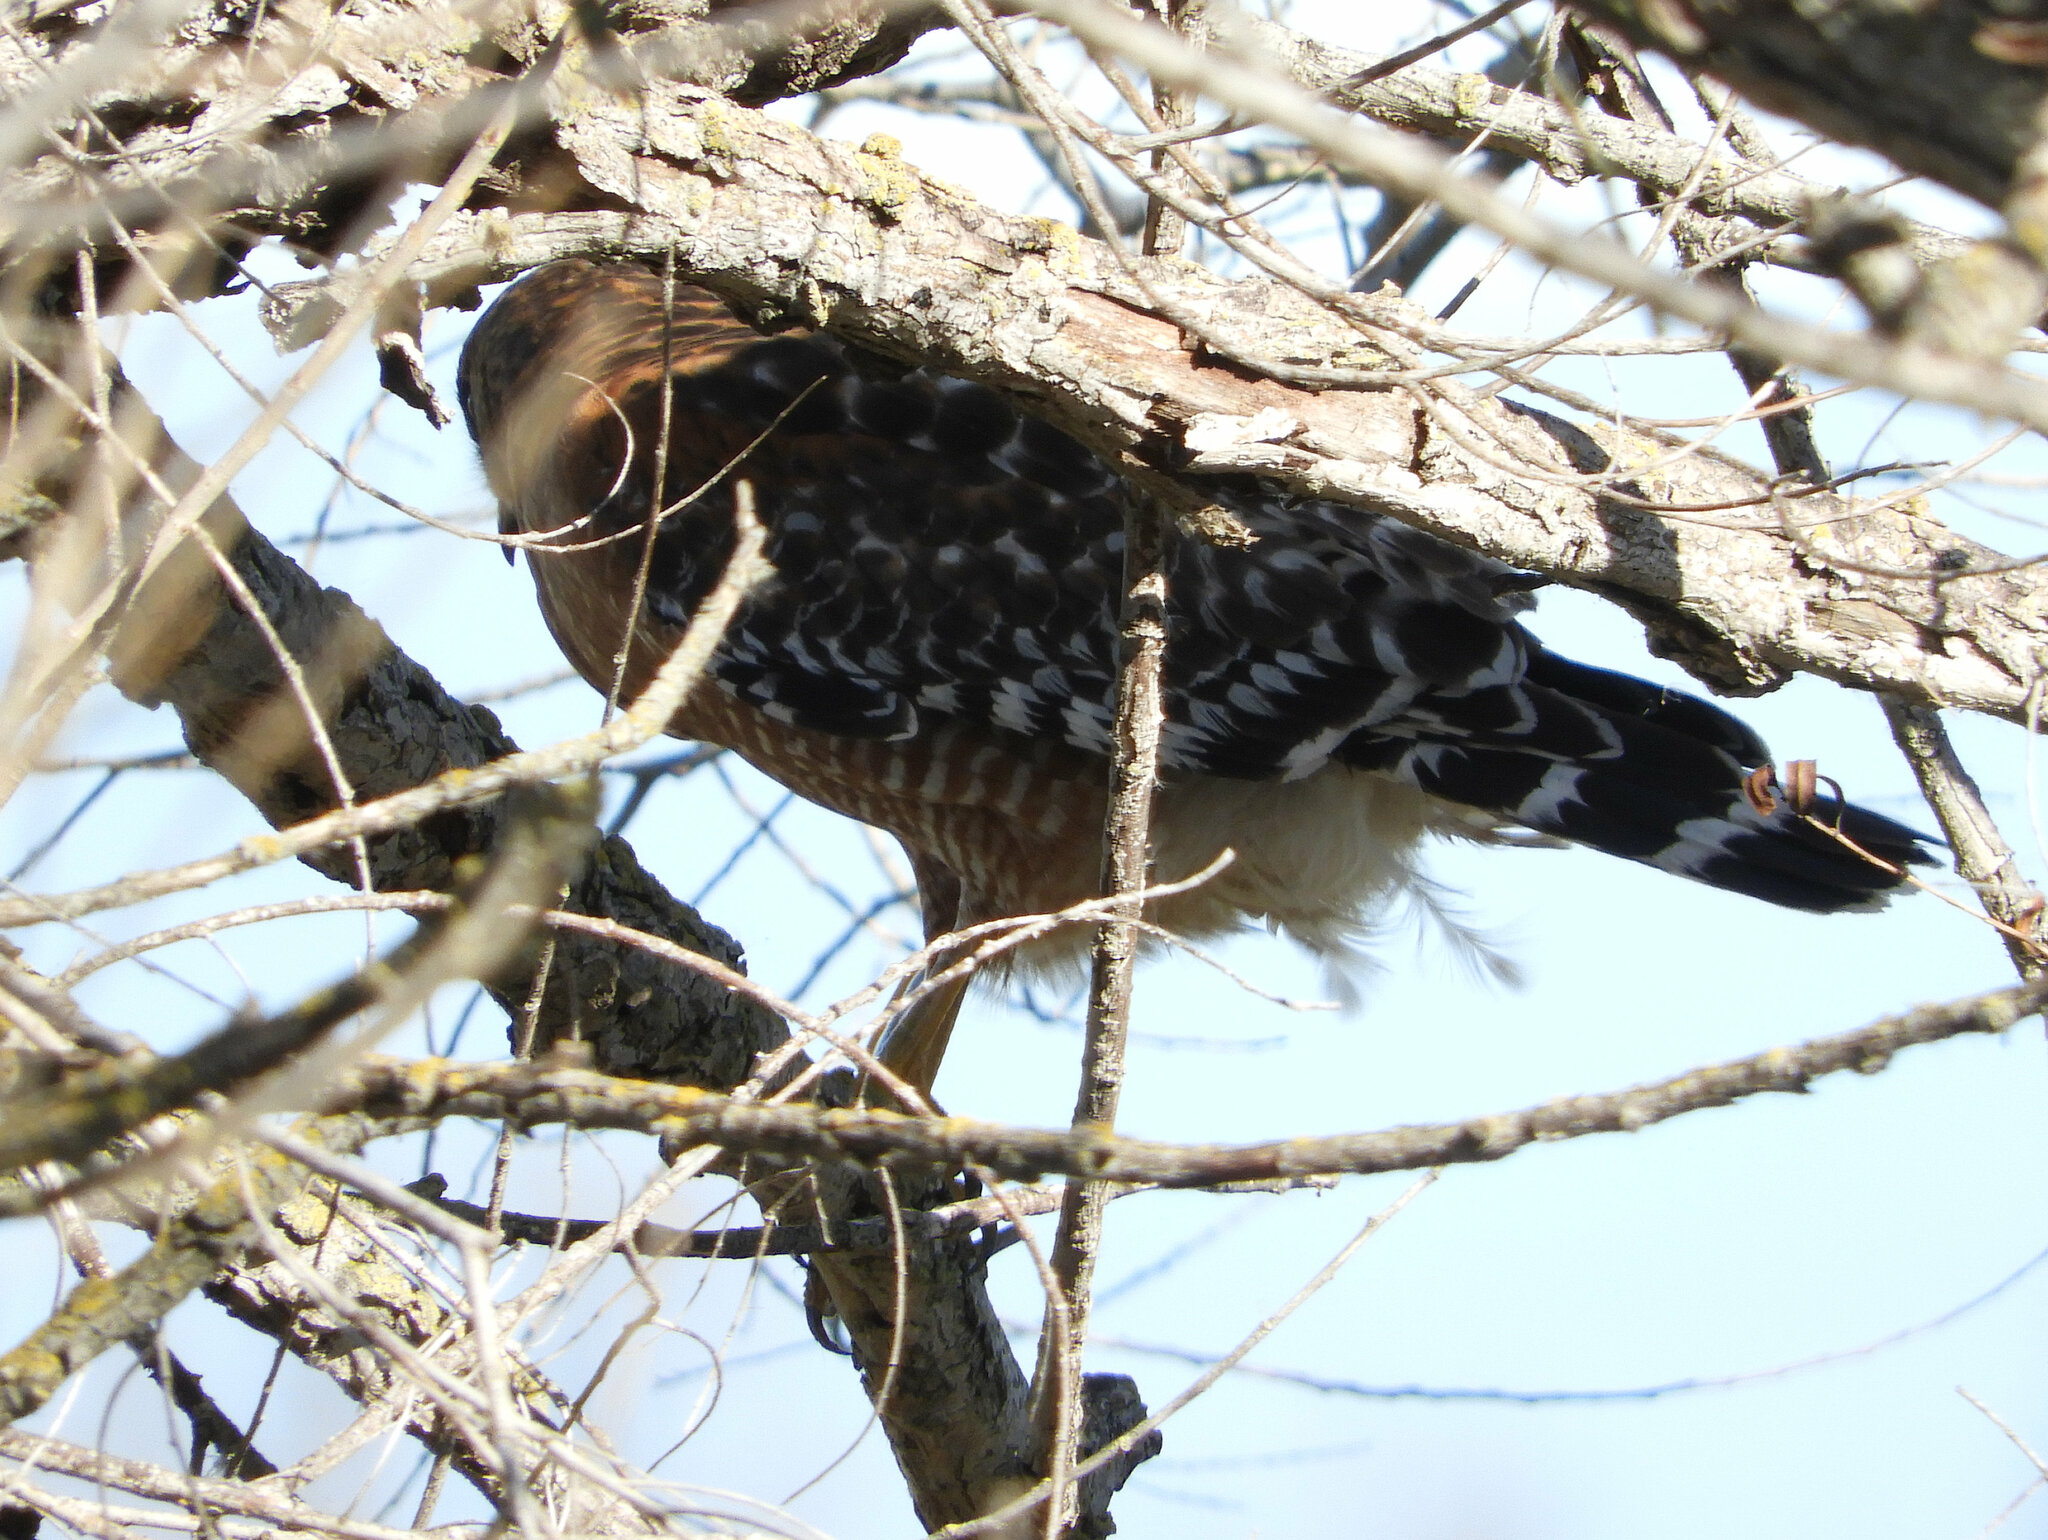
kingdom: Animalia
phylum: Chordata
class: Aves
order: Accipitriformes
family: Accipitridae
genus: Buteo
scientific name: Buteo lineatus
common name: Red-shouldered hawk
